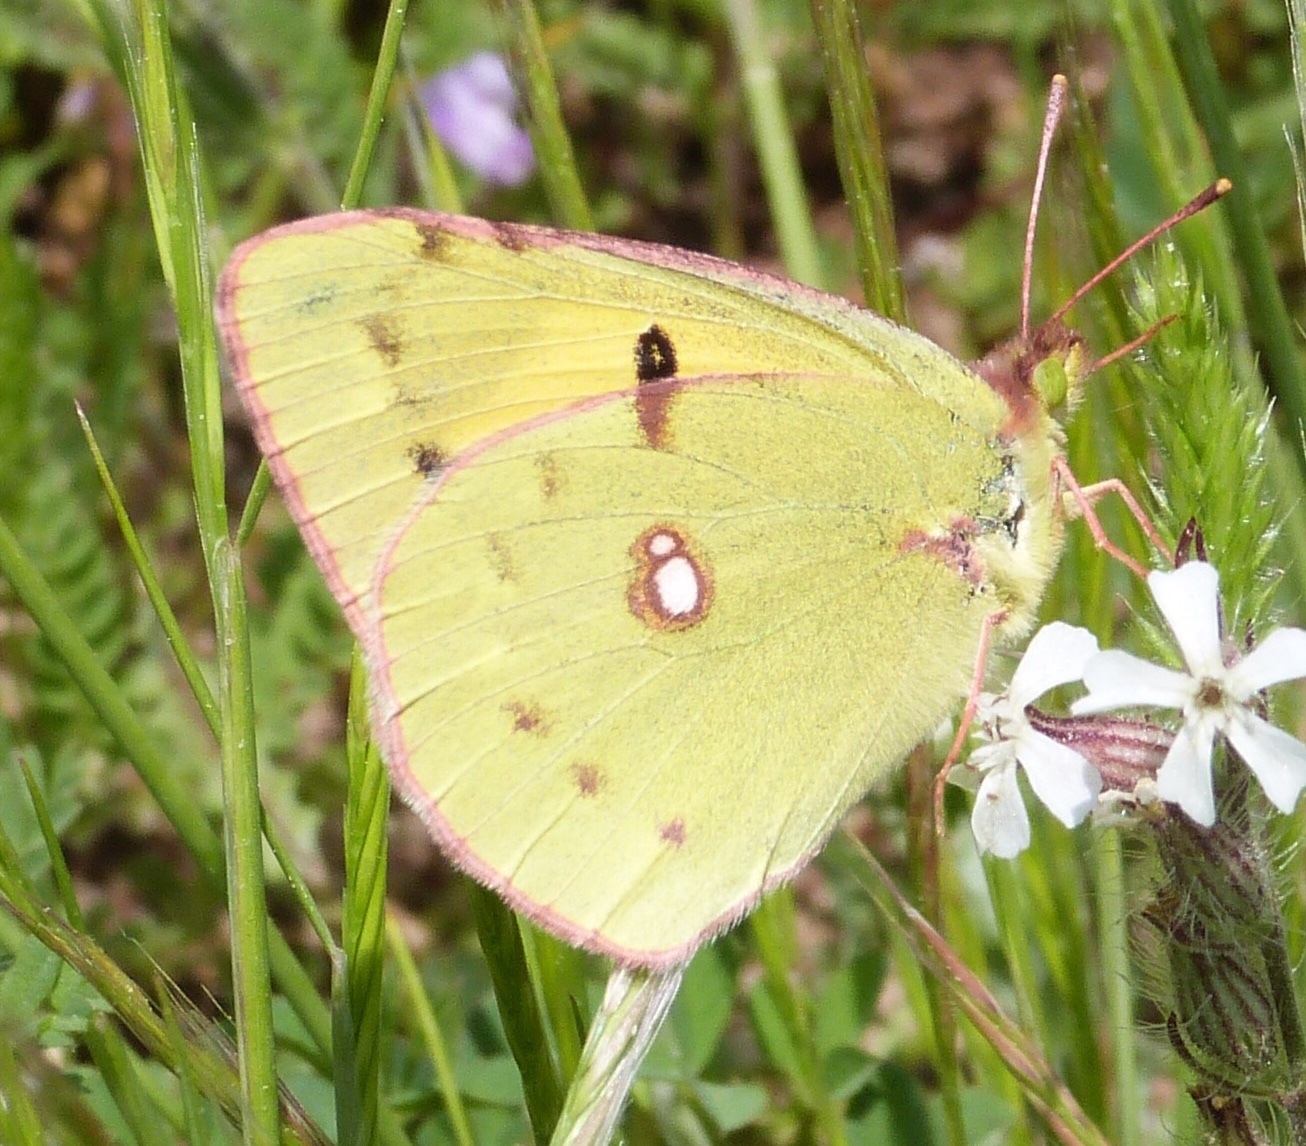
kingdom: Animalia
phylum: Arthropoda
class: Insecta
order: Lepidoptera
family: Pieridae
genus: Colias
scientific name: Colias croceus
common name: Clouded yellow
